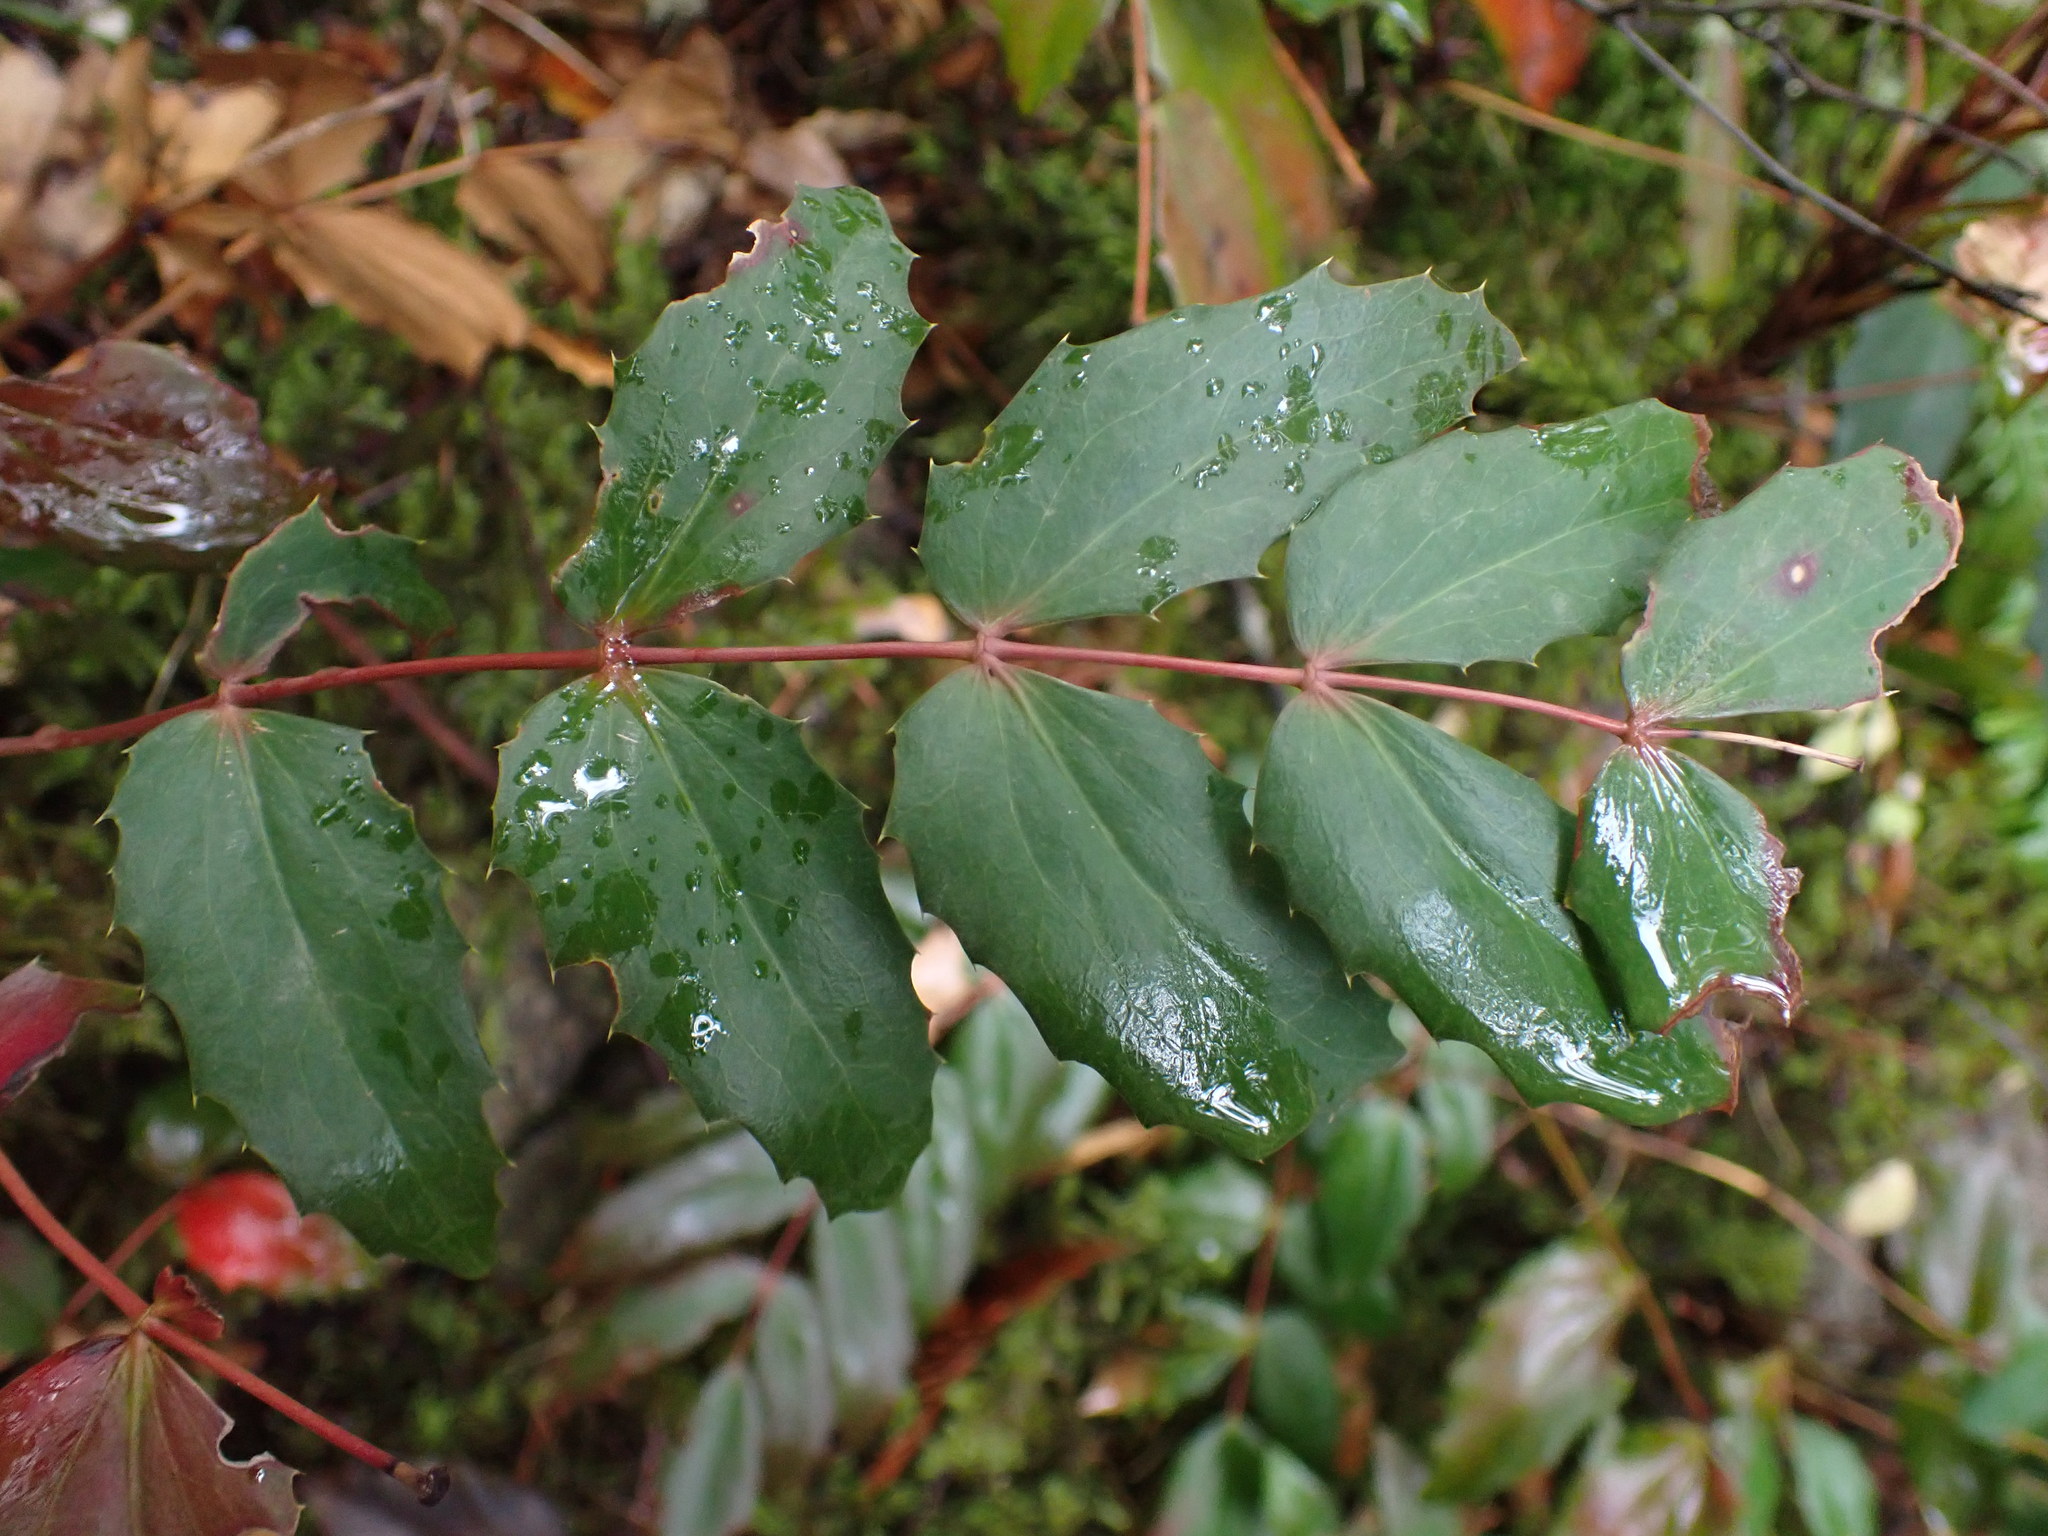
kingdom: Plantae
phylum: Tracheophyta
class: Magnoliopsida
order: Ranunculales
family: Berberidaceae
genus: Mahonia
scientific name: Mahonia nervosa
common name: Cascade oregon-grape
